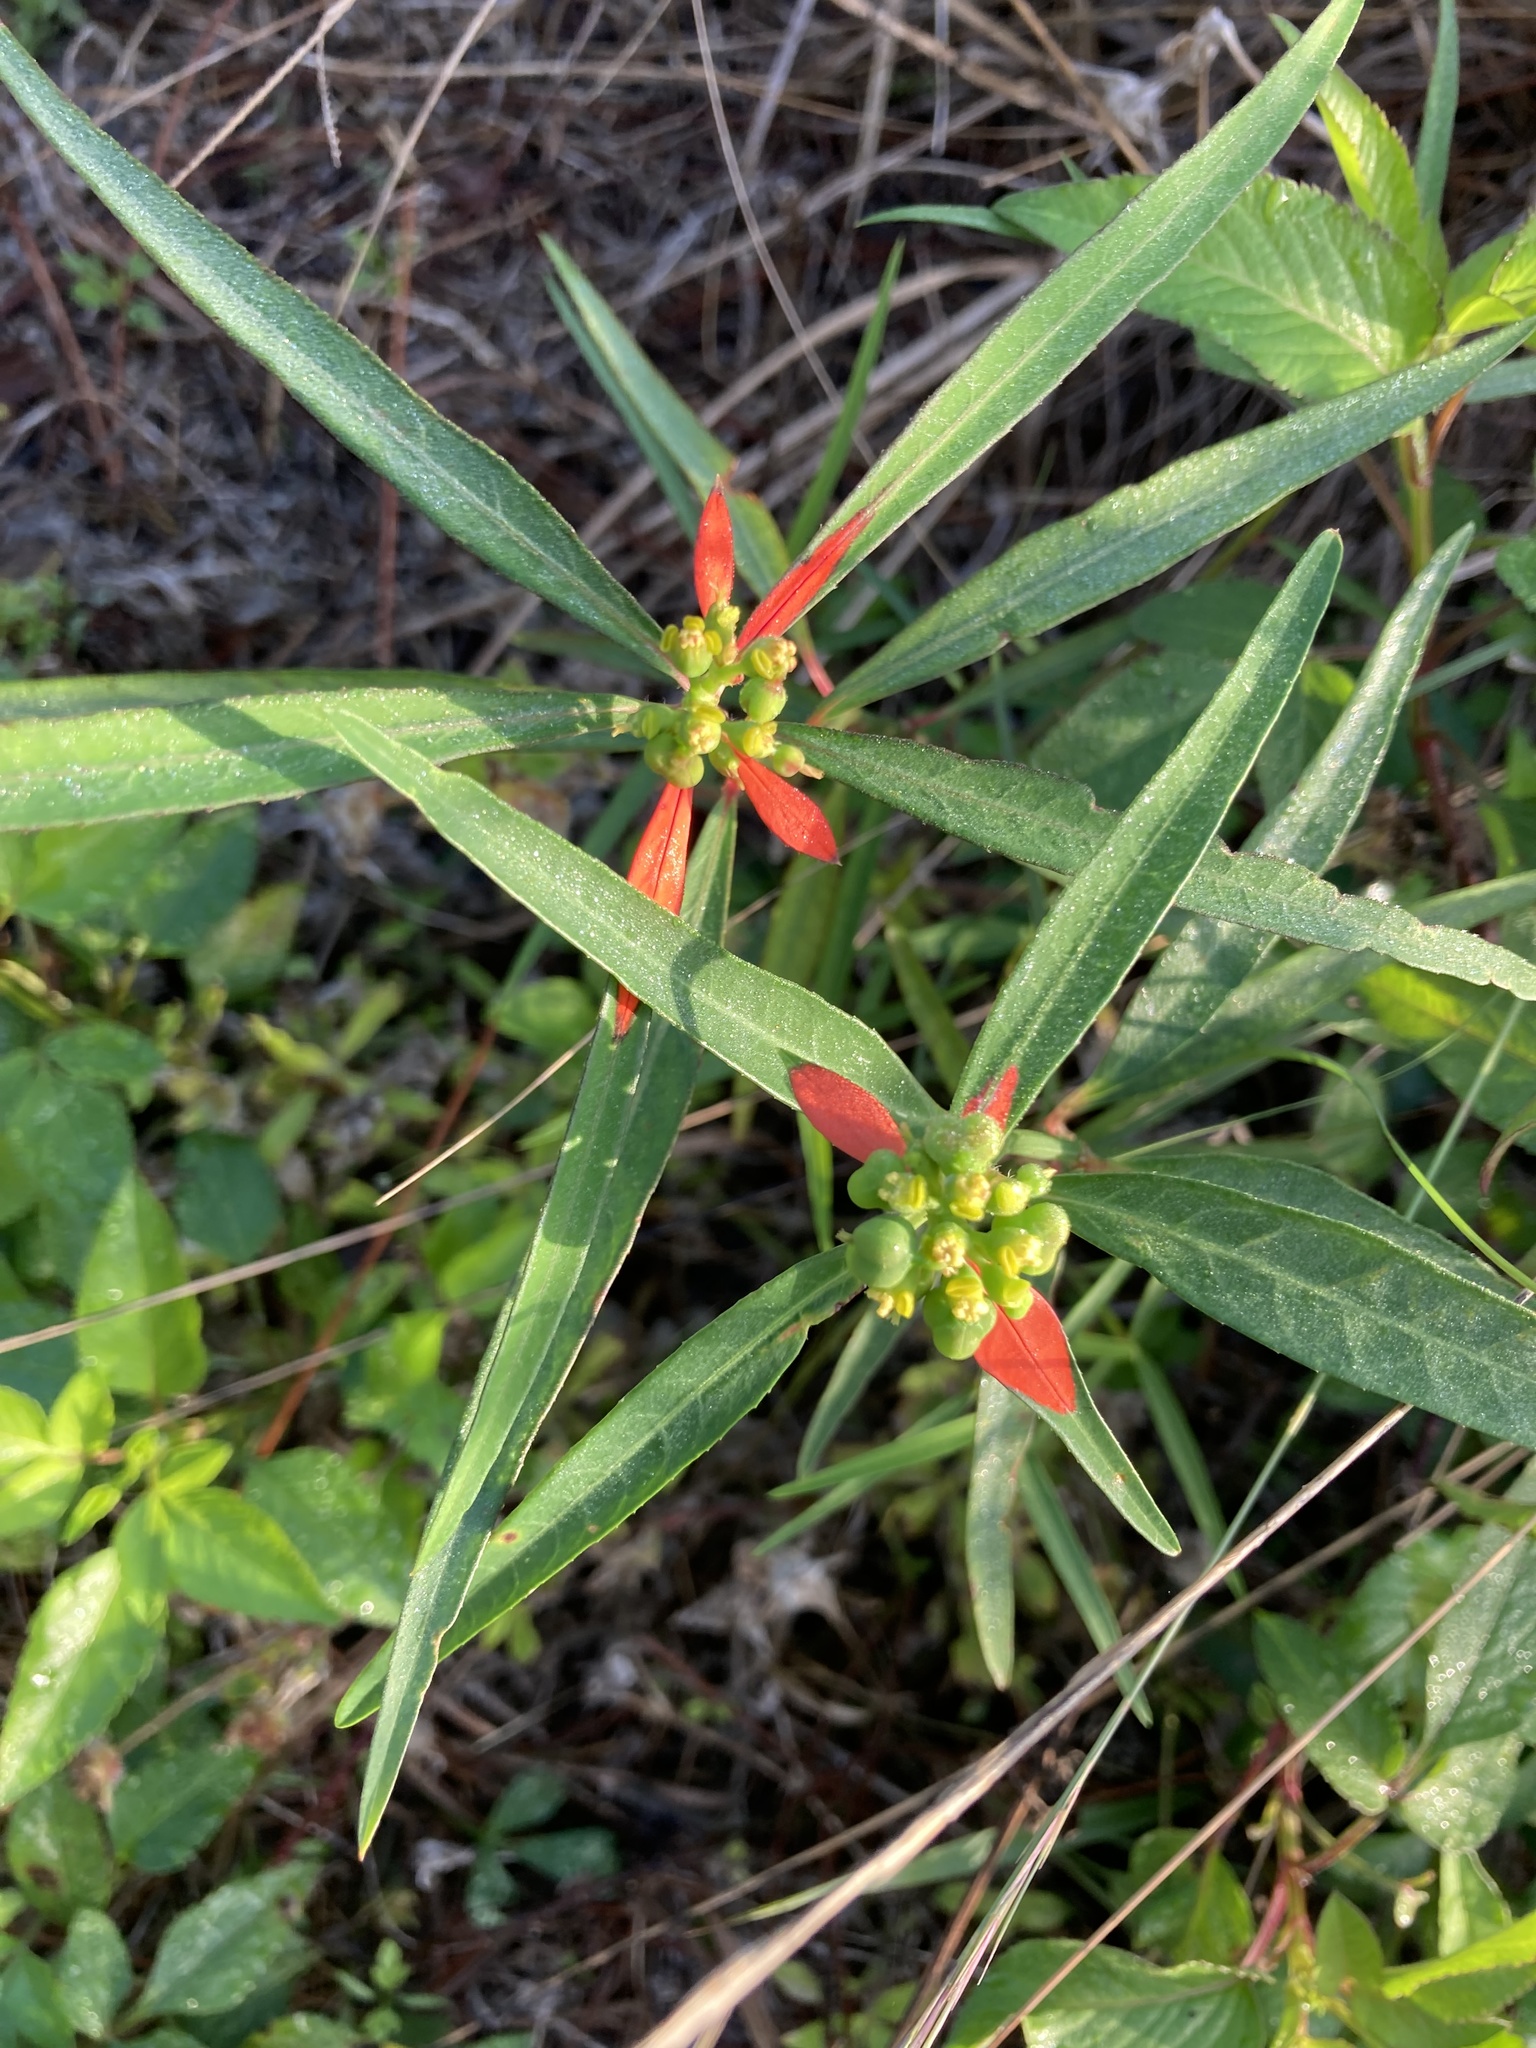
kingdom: Plantae
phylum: Tracheophyta
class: Magnoliopsida
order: Malpighiales
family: Euphorbiaceae
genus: Euphorbia
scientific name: Euphorbia heterophylla
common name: Mexican fireplant
